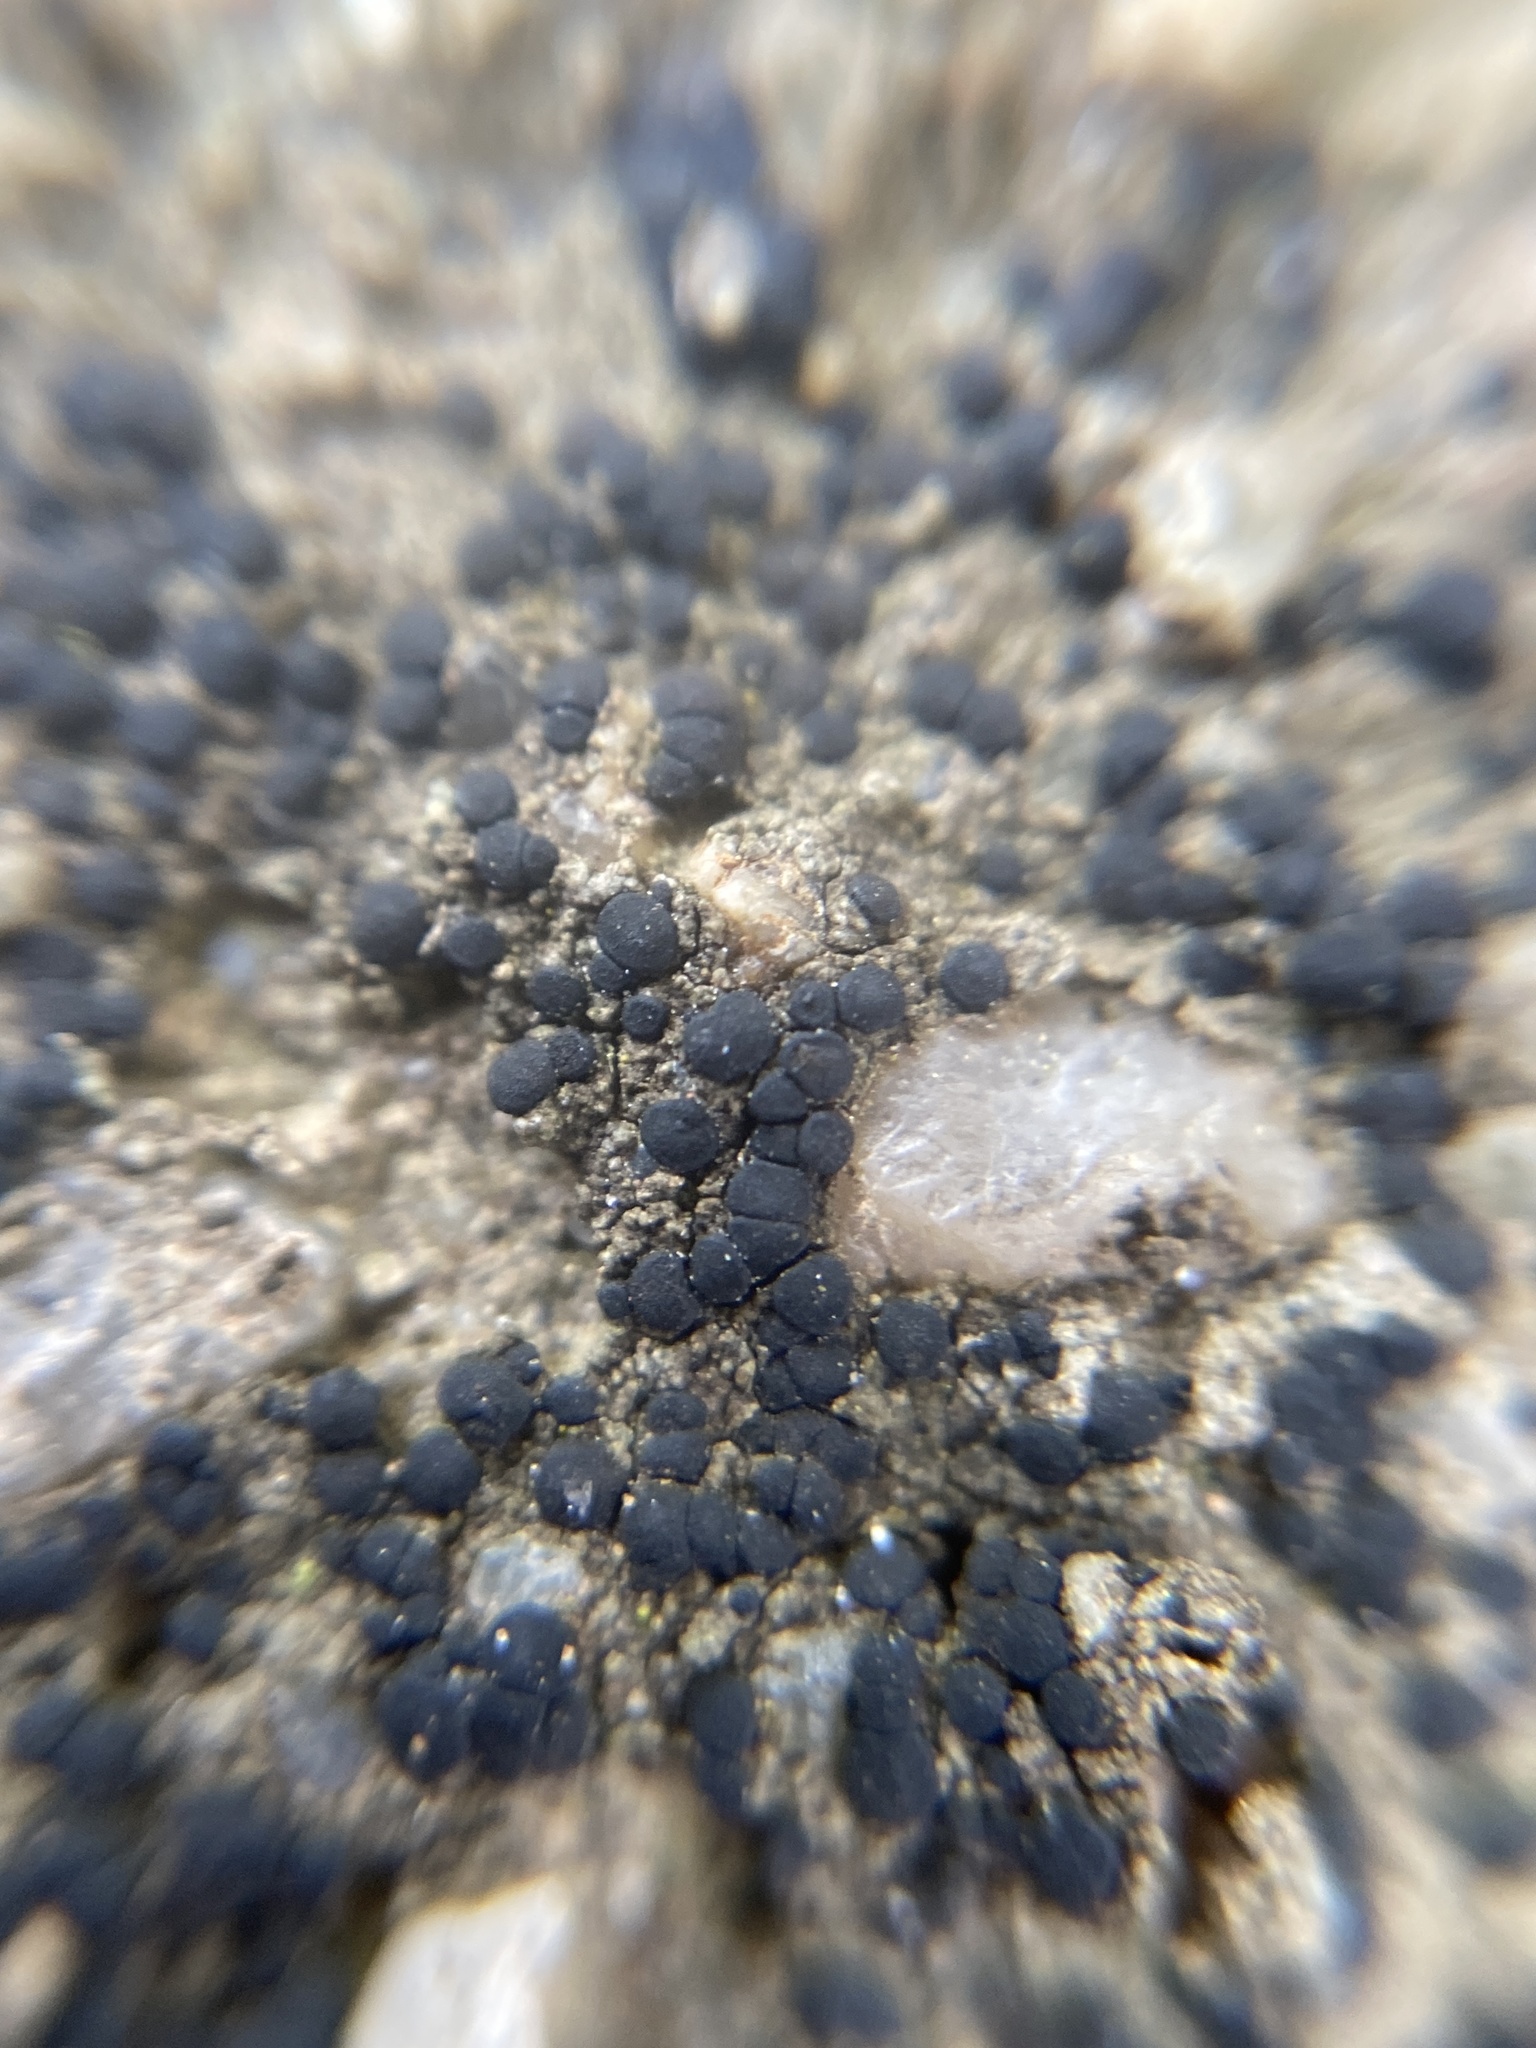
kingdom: Fungi
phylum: Ascomycota
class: Lecanoromycetes
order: Lecanorales
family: Lecanoraceae
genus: Lecidella
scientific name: Lecidella stigmatea
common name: Limestone disc lichen
